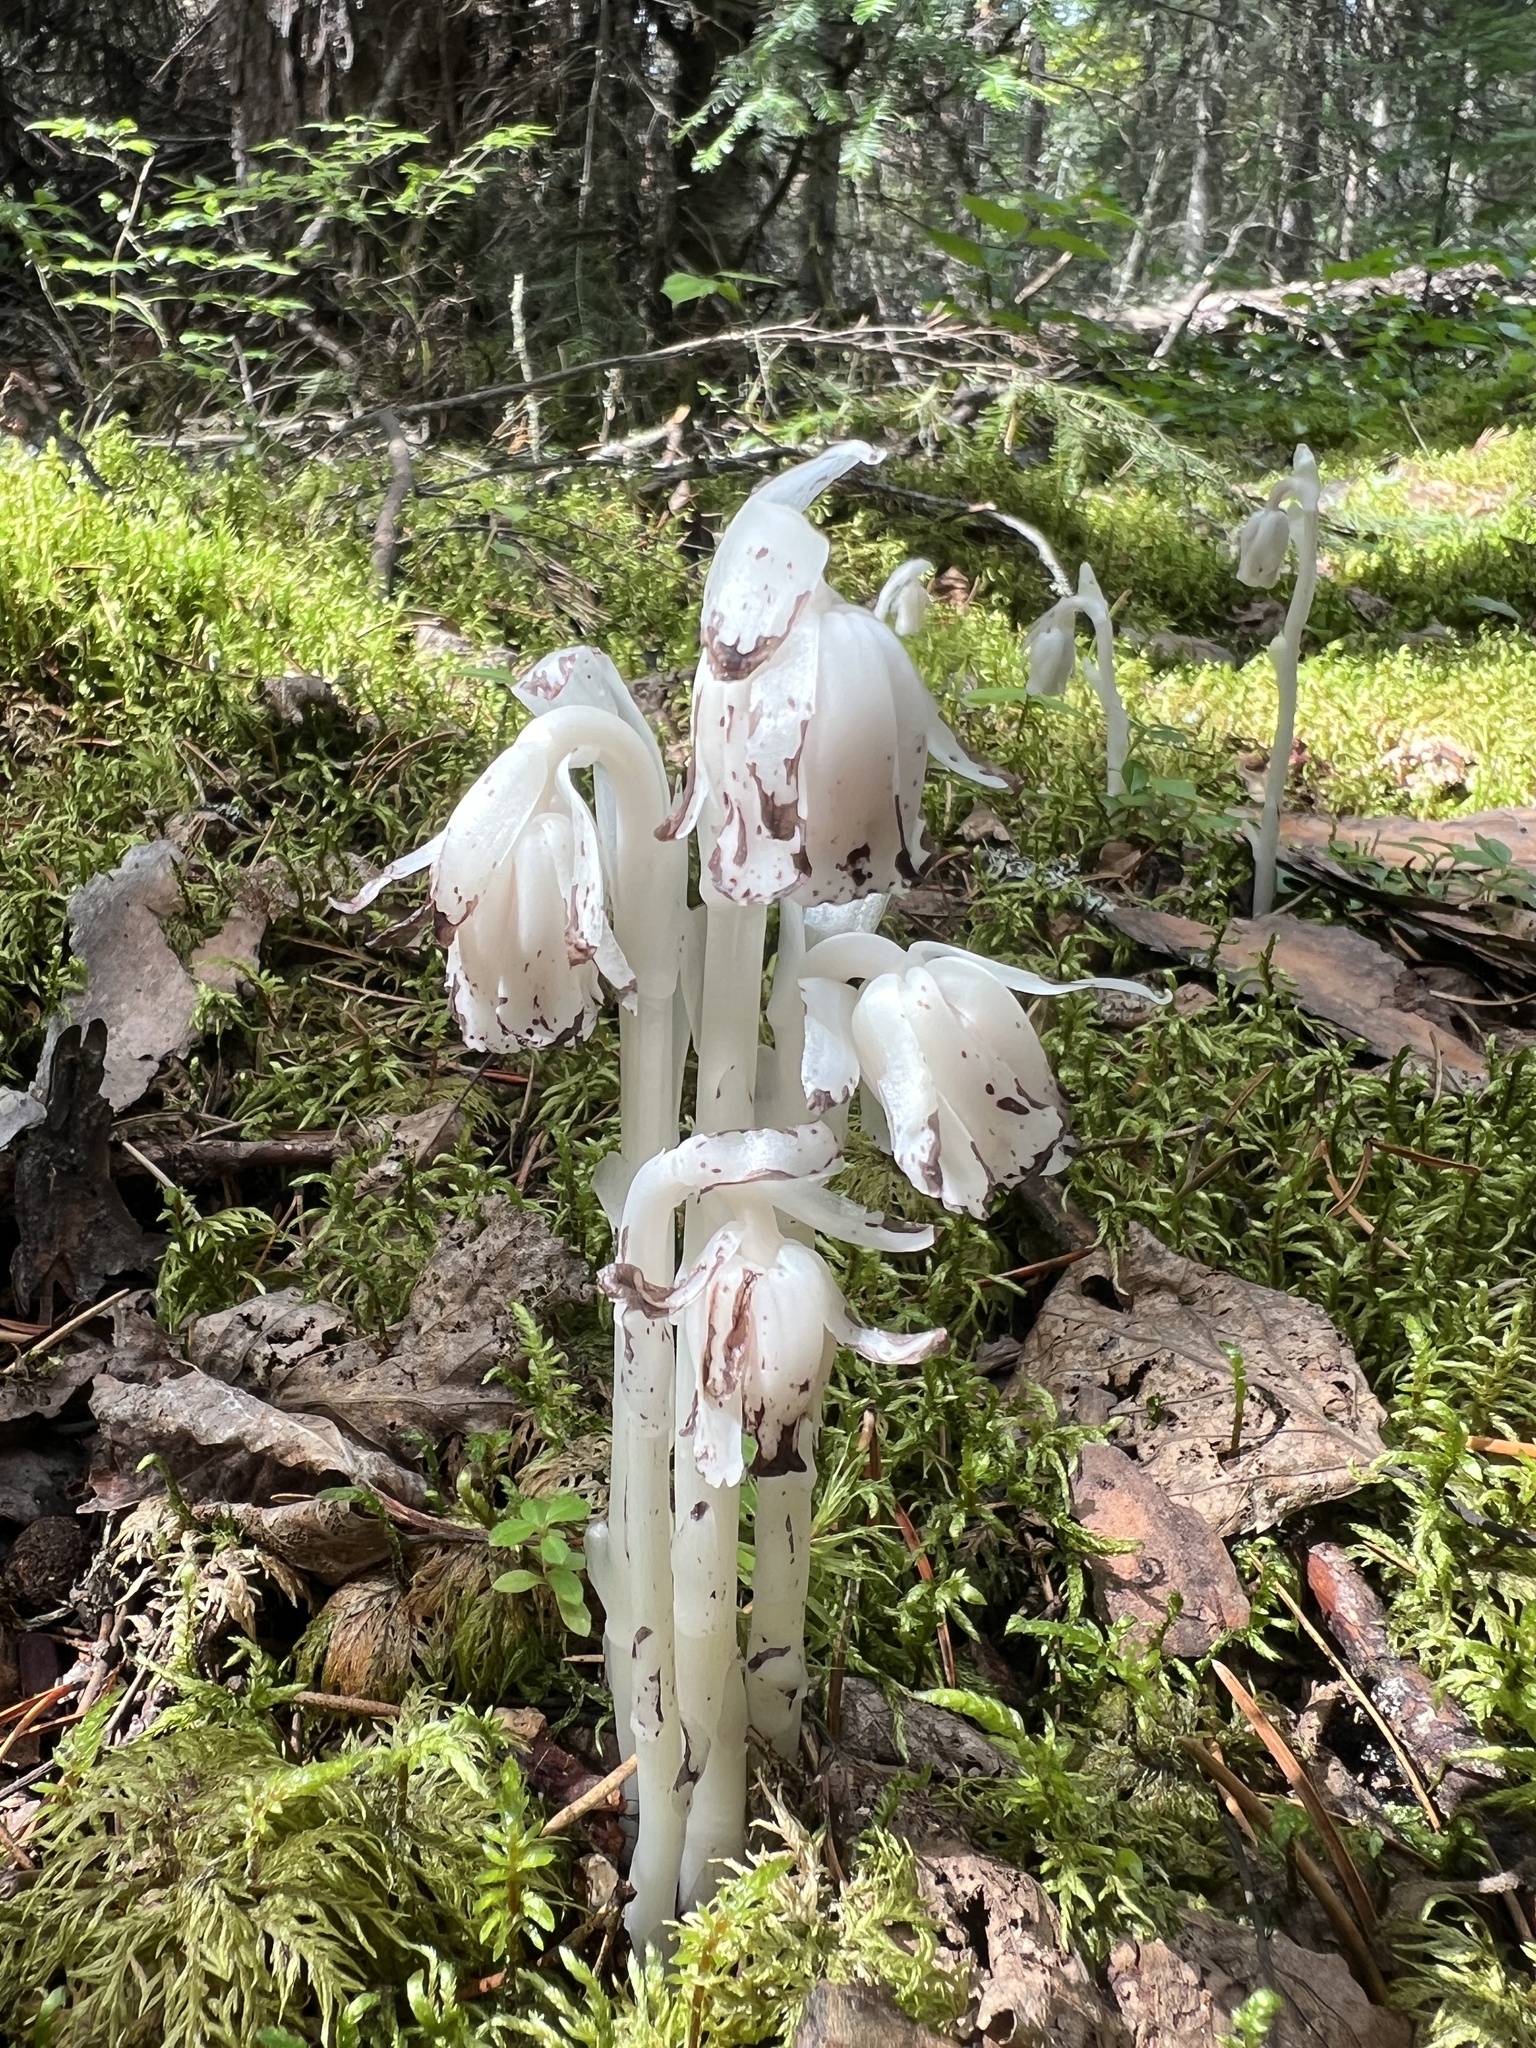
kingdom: Plantae
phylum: Tracheophyta
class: Magnoliopsida
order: Ericales
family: Ericaceae
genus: Monotropa
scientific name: Monotropa uniflora
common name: Convulsion root
